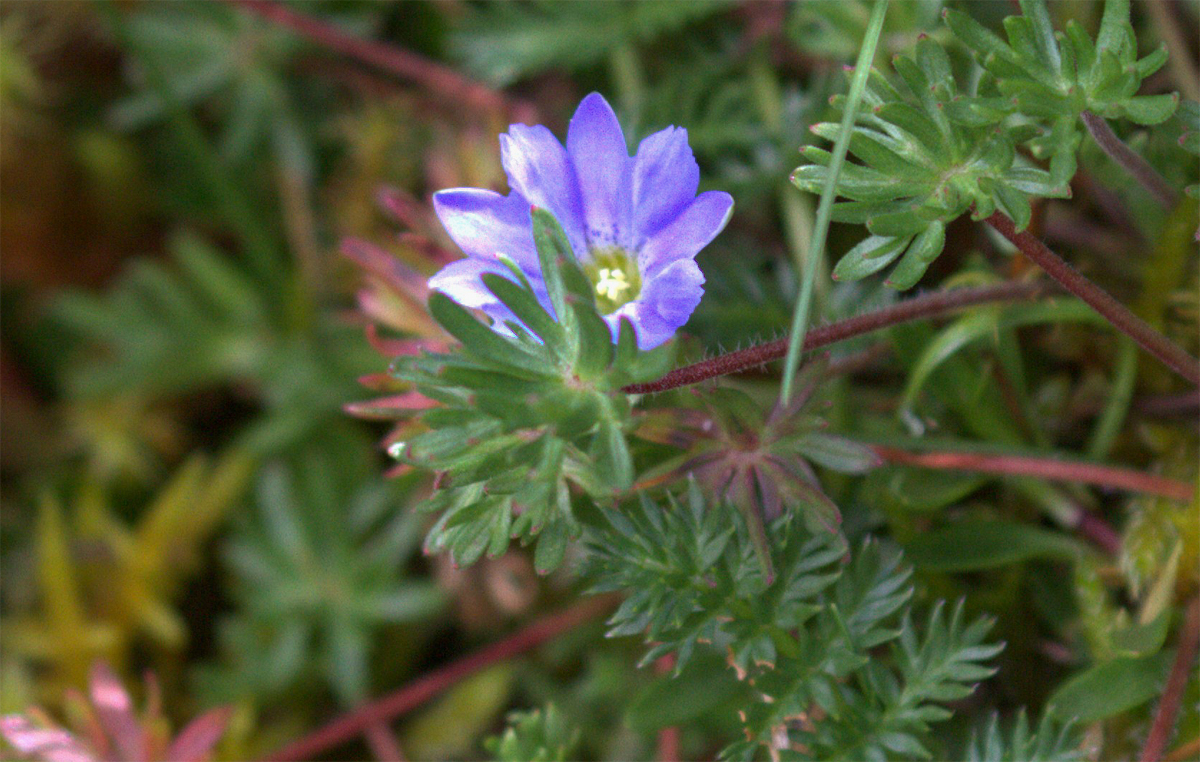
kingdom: Plantae
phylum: Tracheophyta
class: Magnoliopsida
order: Gentianales
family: Gentianaceae
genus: Gentiana
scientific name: Gentiana sedifolia
